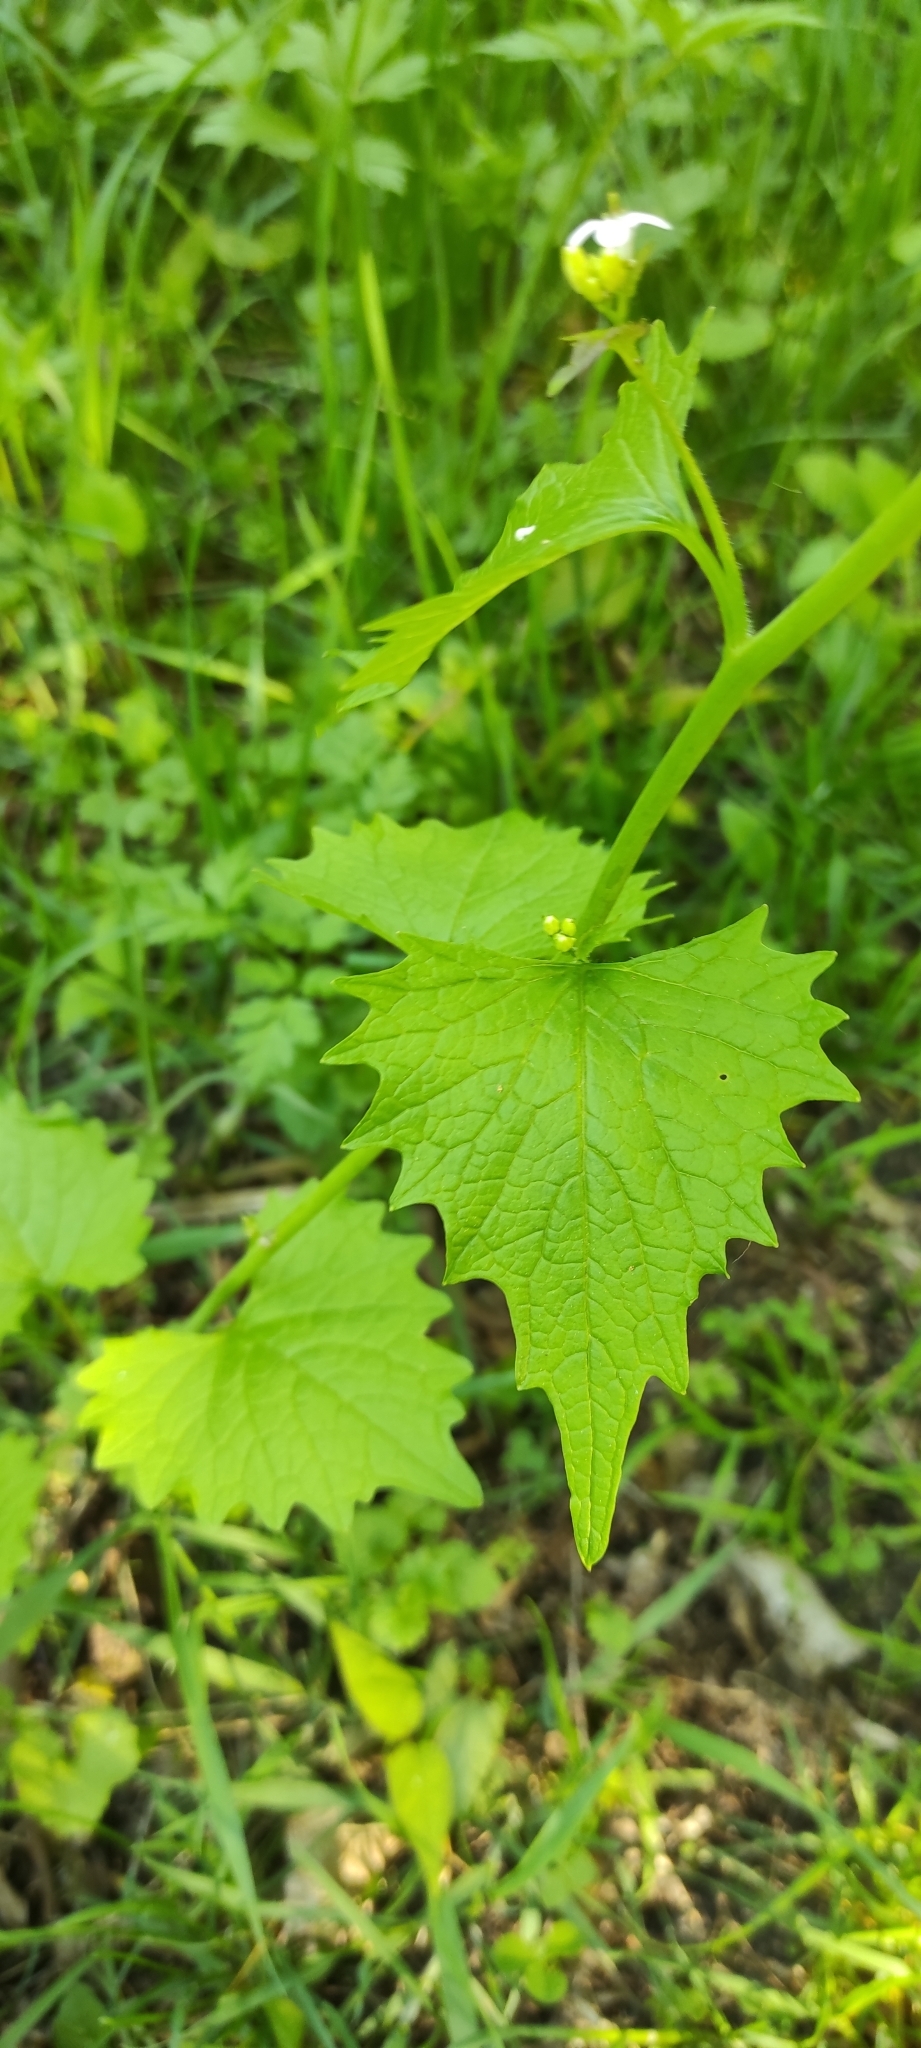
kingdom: Plantae
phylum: Tracheophyta
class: Magnoliopsida
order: Brassicales
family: Brassicaceae
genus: Alliaria
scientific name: Alliaria petiolata
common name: Garlic mustard
